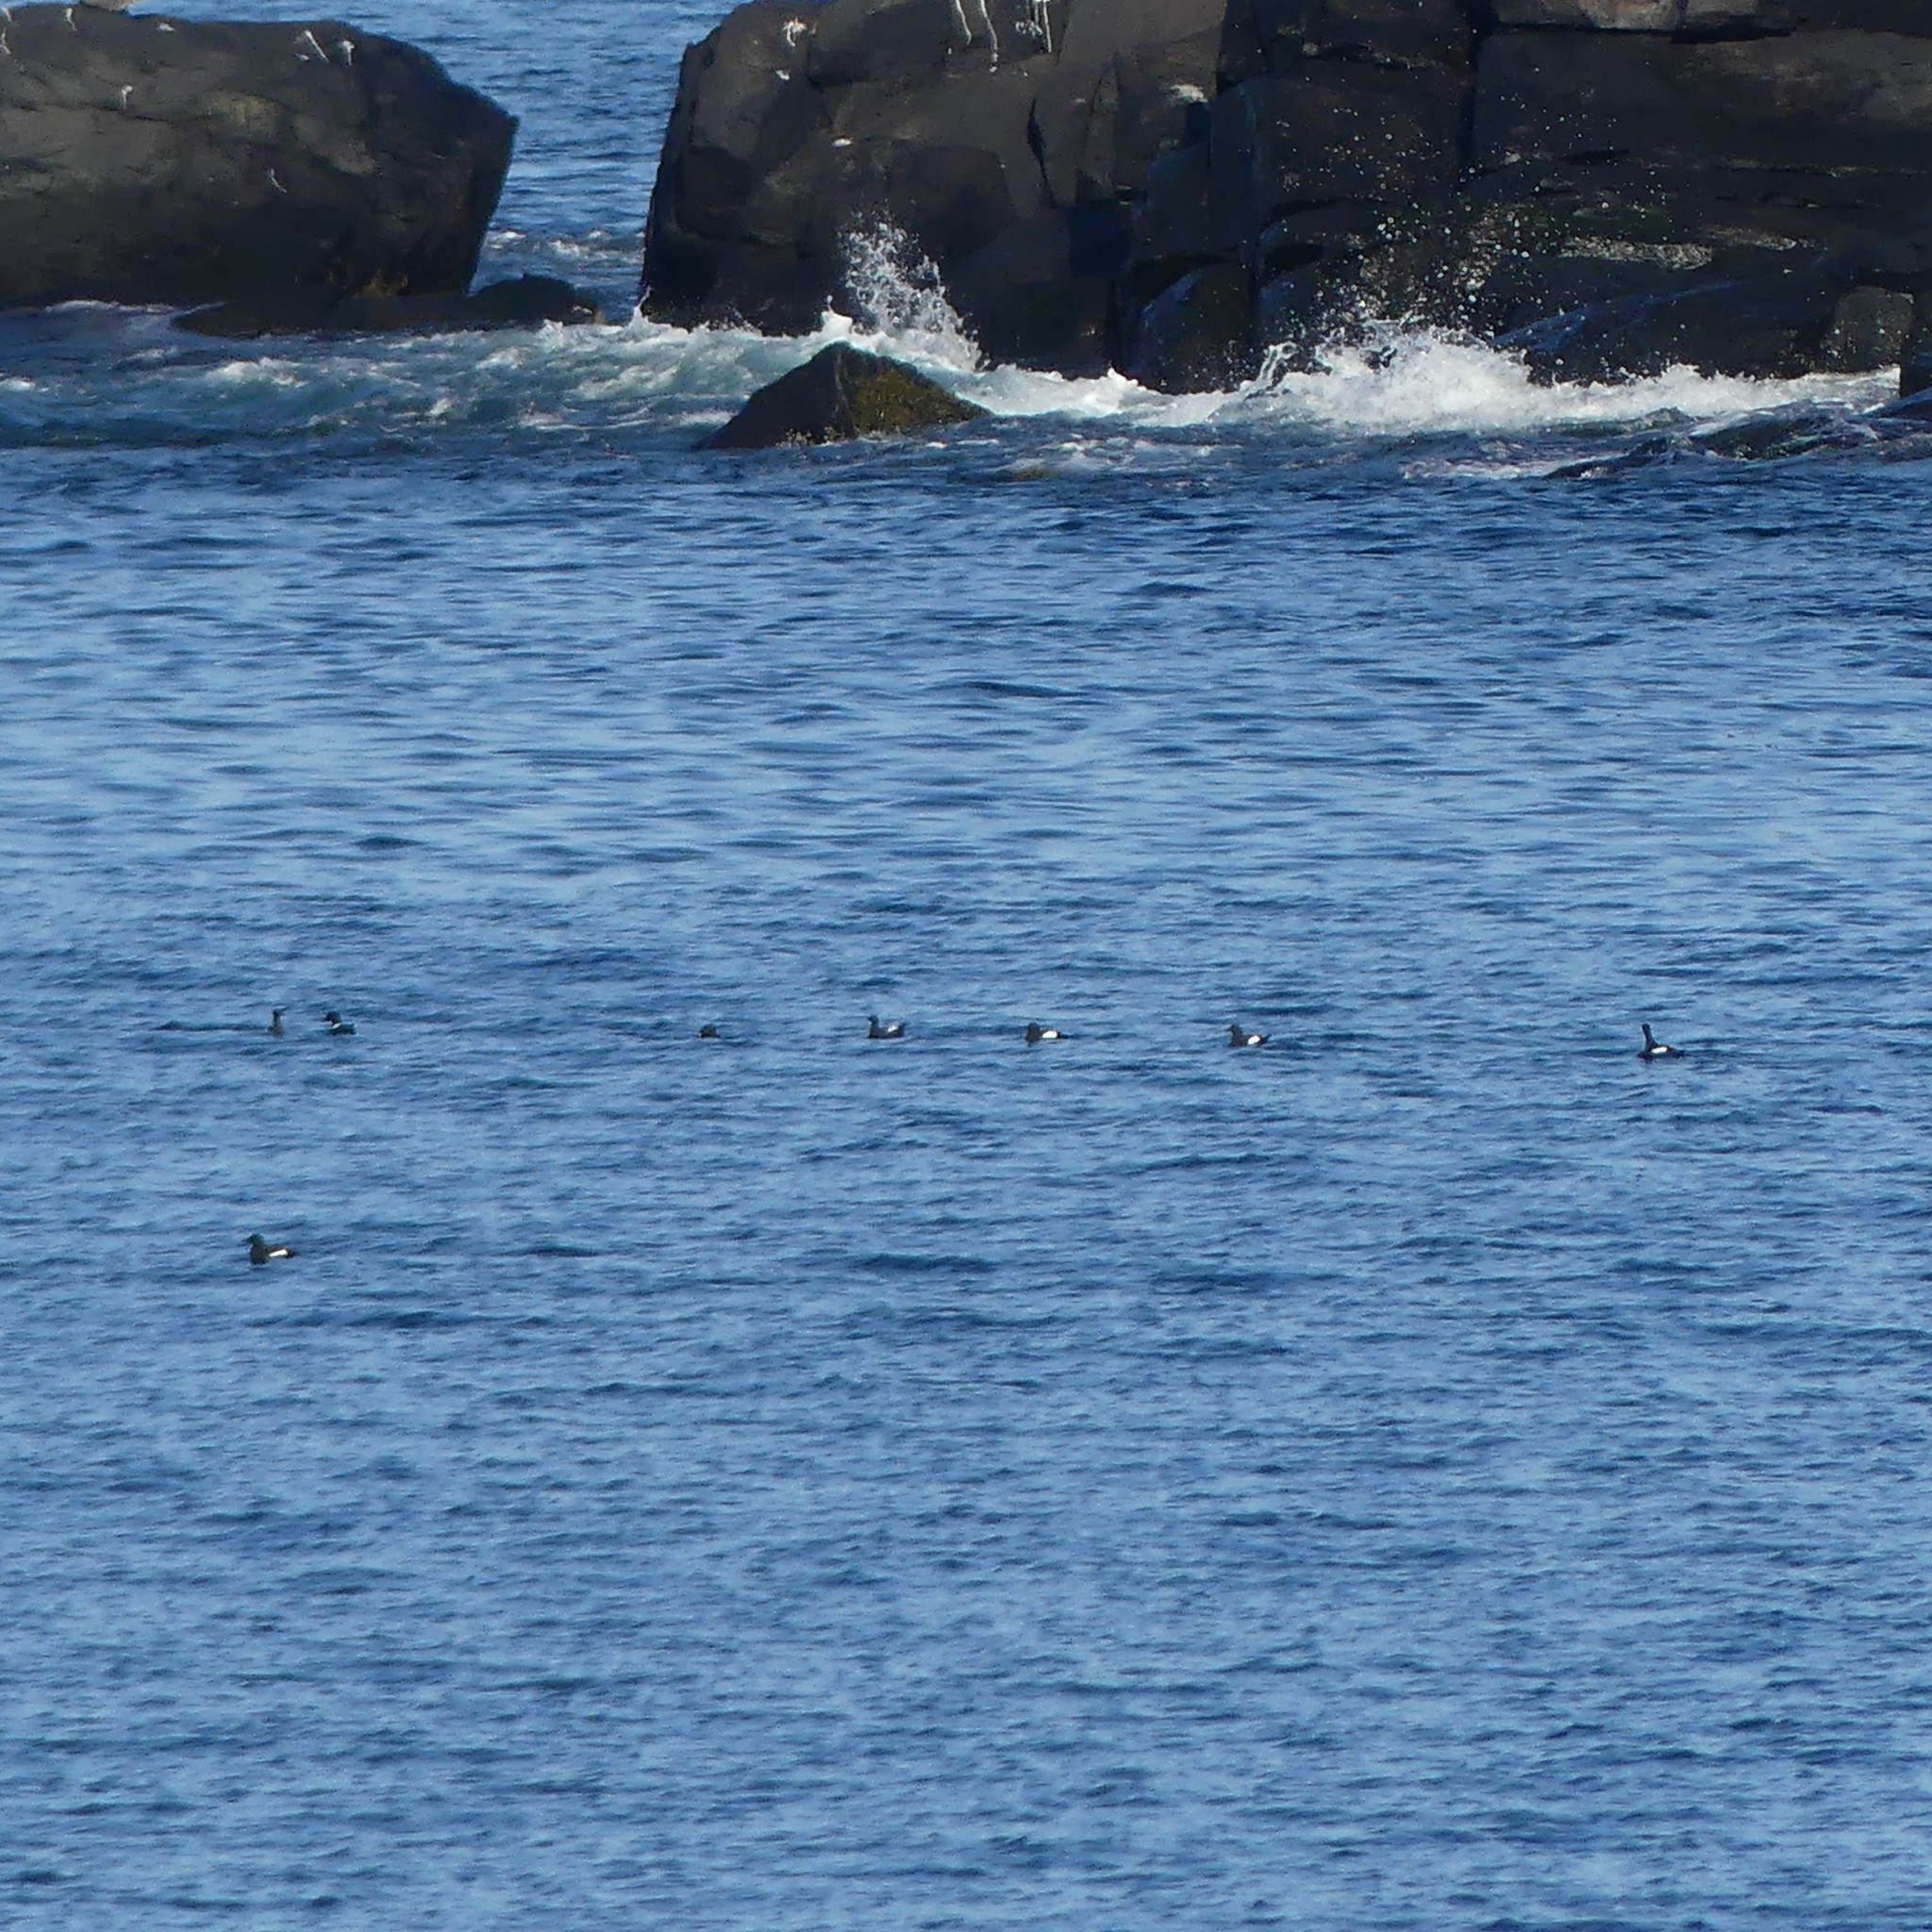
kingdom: Animalia
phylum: Chordata
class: Aves
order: Charadriiformes
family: Alcidae
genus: Cepphus
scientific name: Cepphus grylle
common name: Black guillemot
